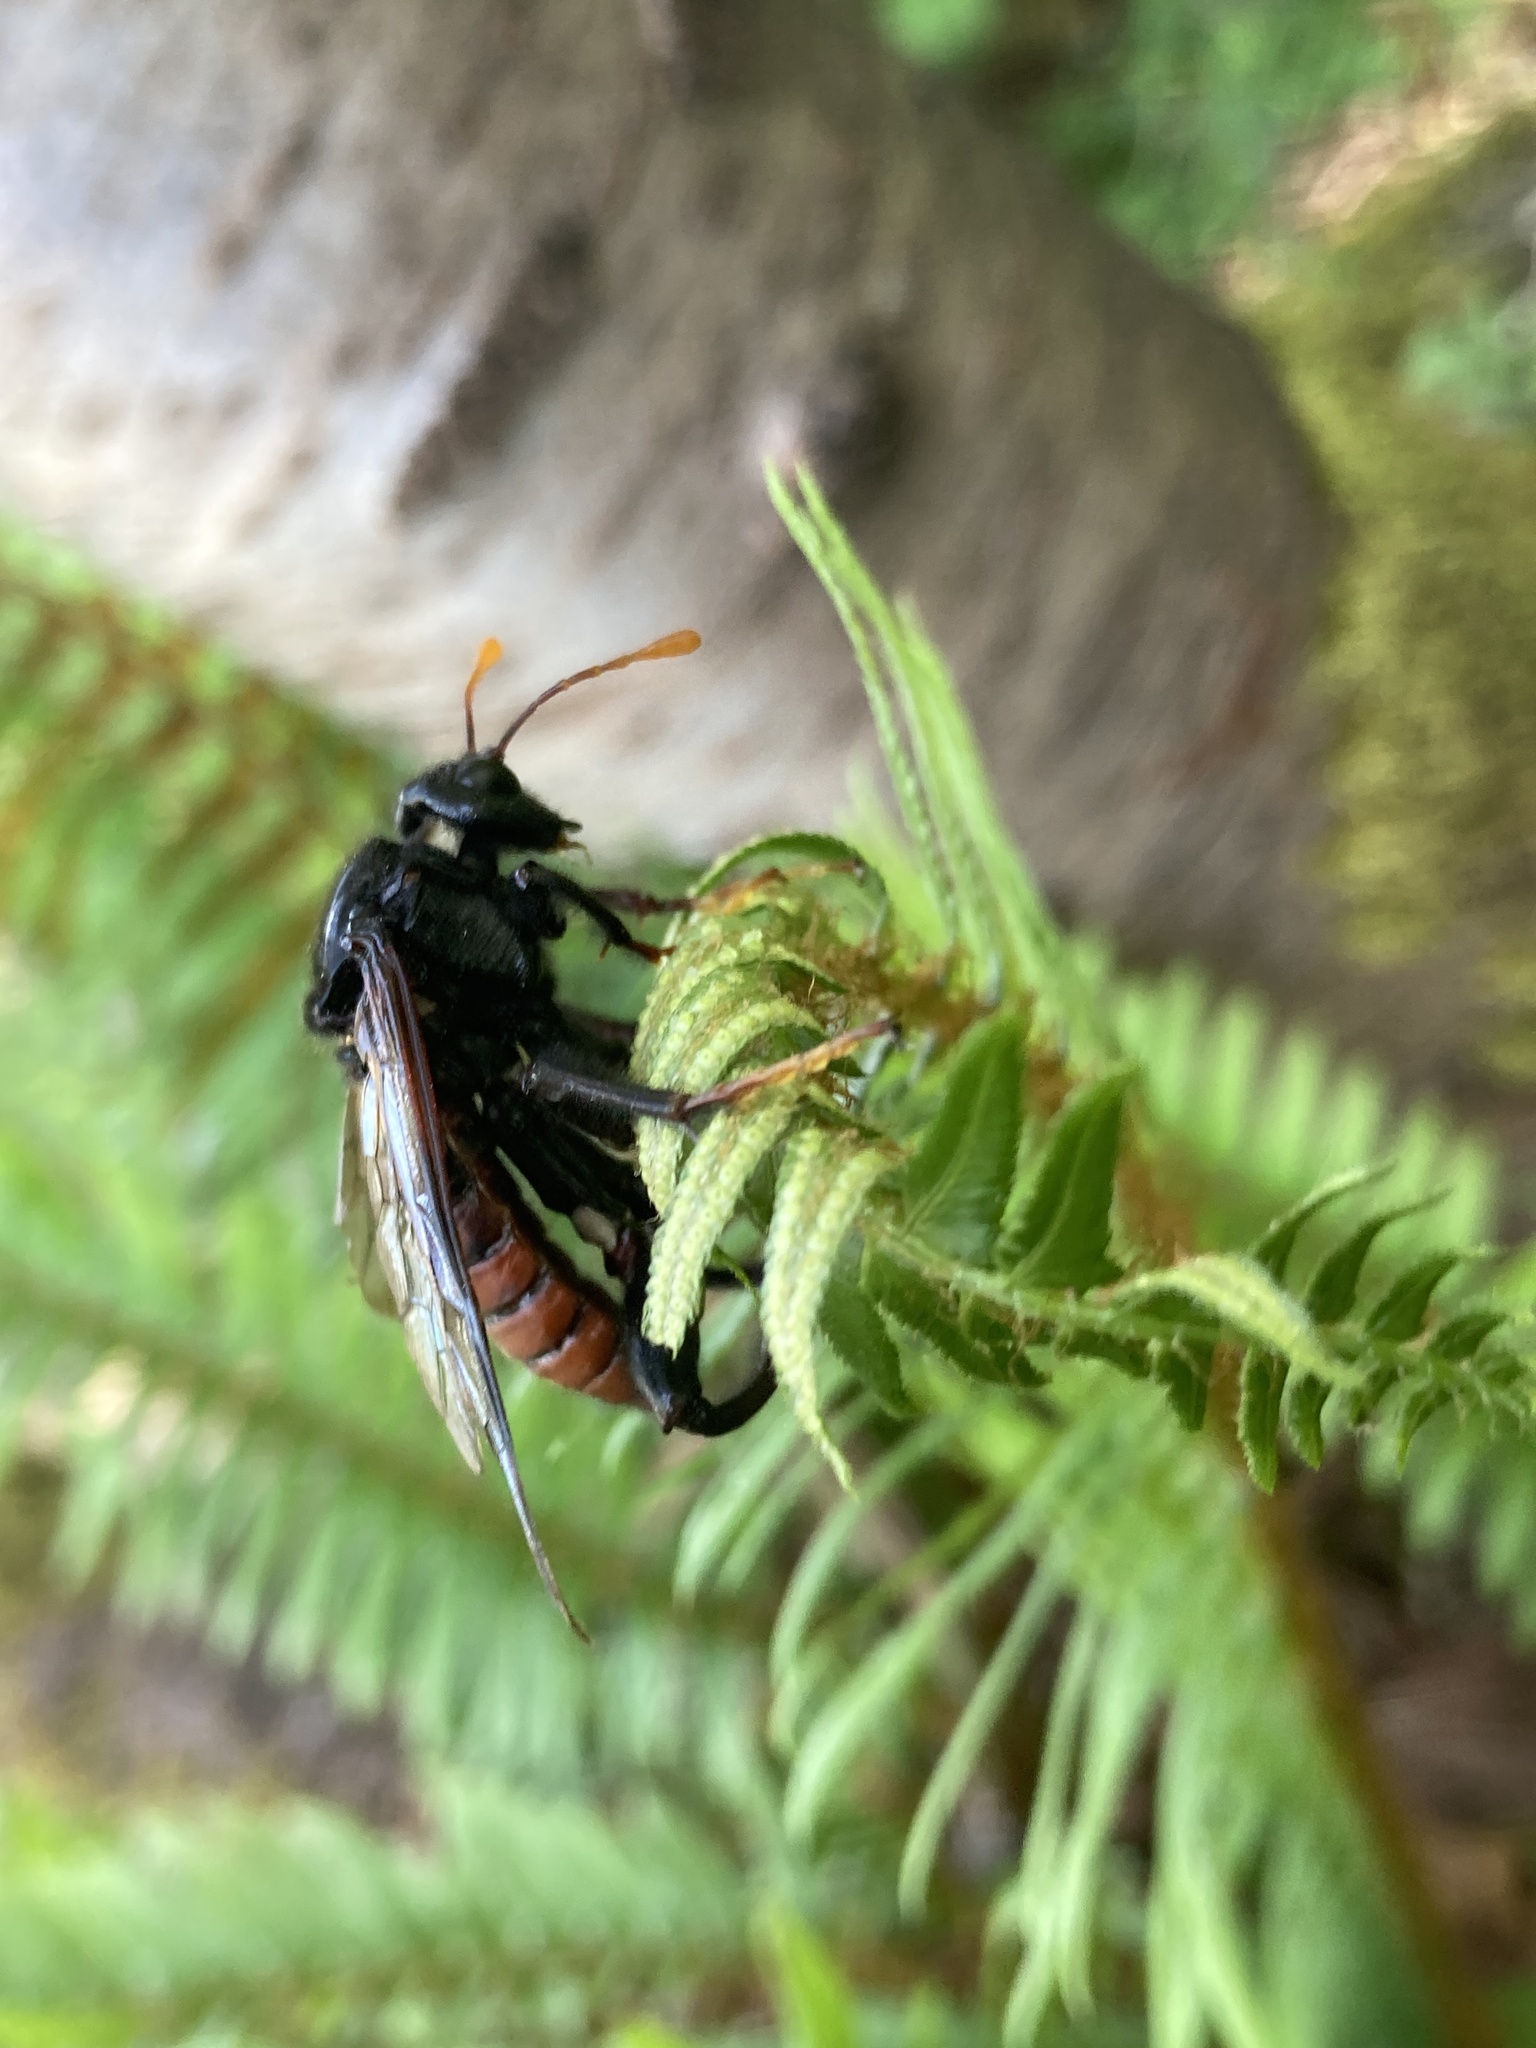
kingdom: Animalia
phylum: Arthropoda
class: Insecta
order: Hymenoptera
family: Cimbicidae
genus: Cimbex
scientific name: Cimbex americana
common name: Elm sawfly
